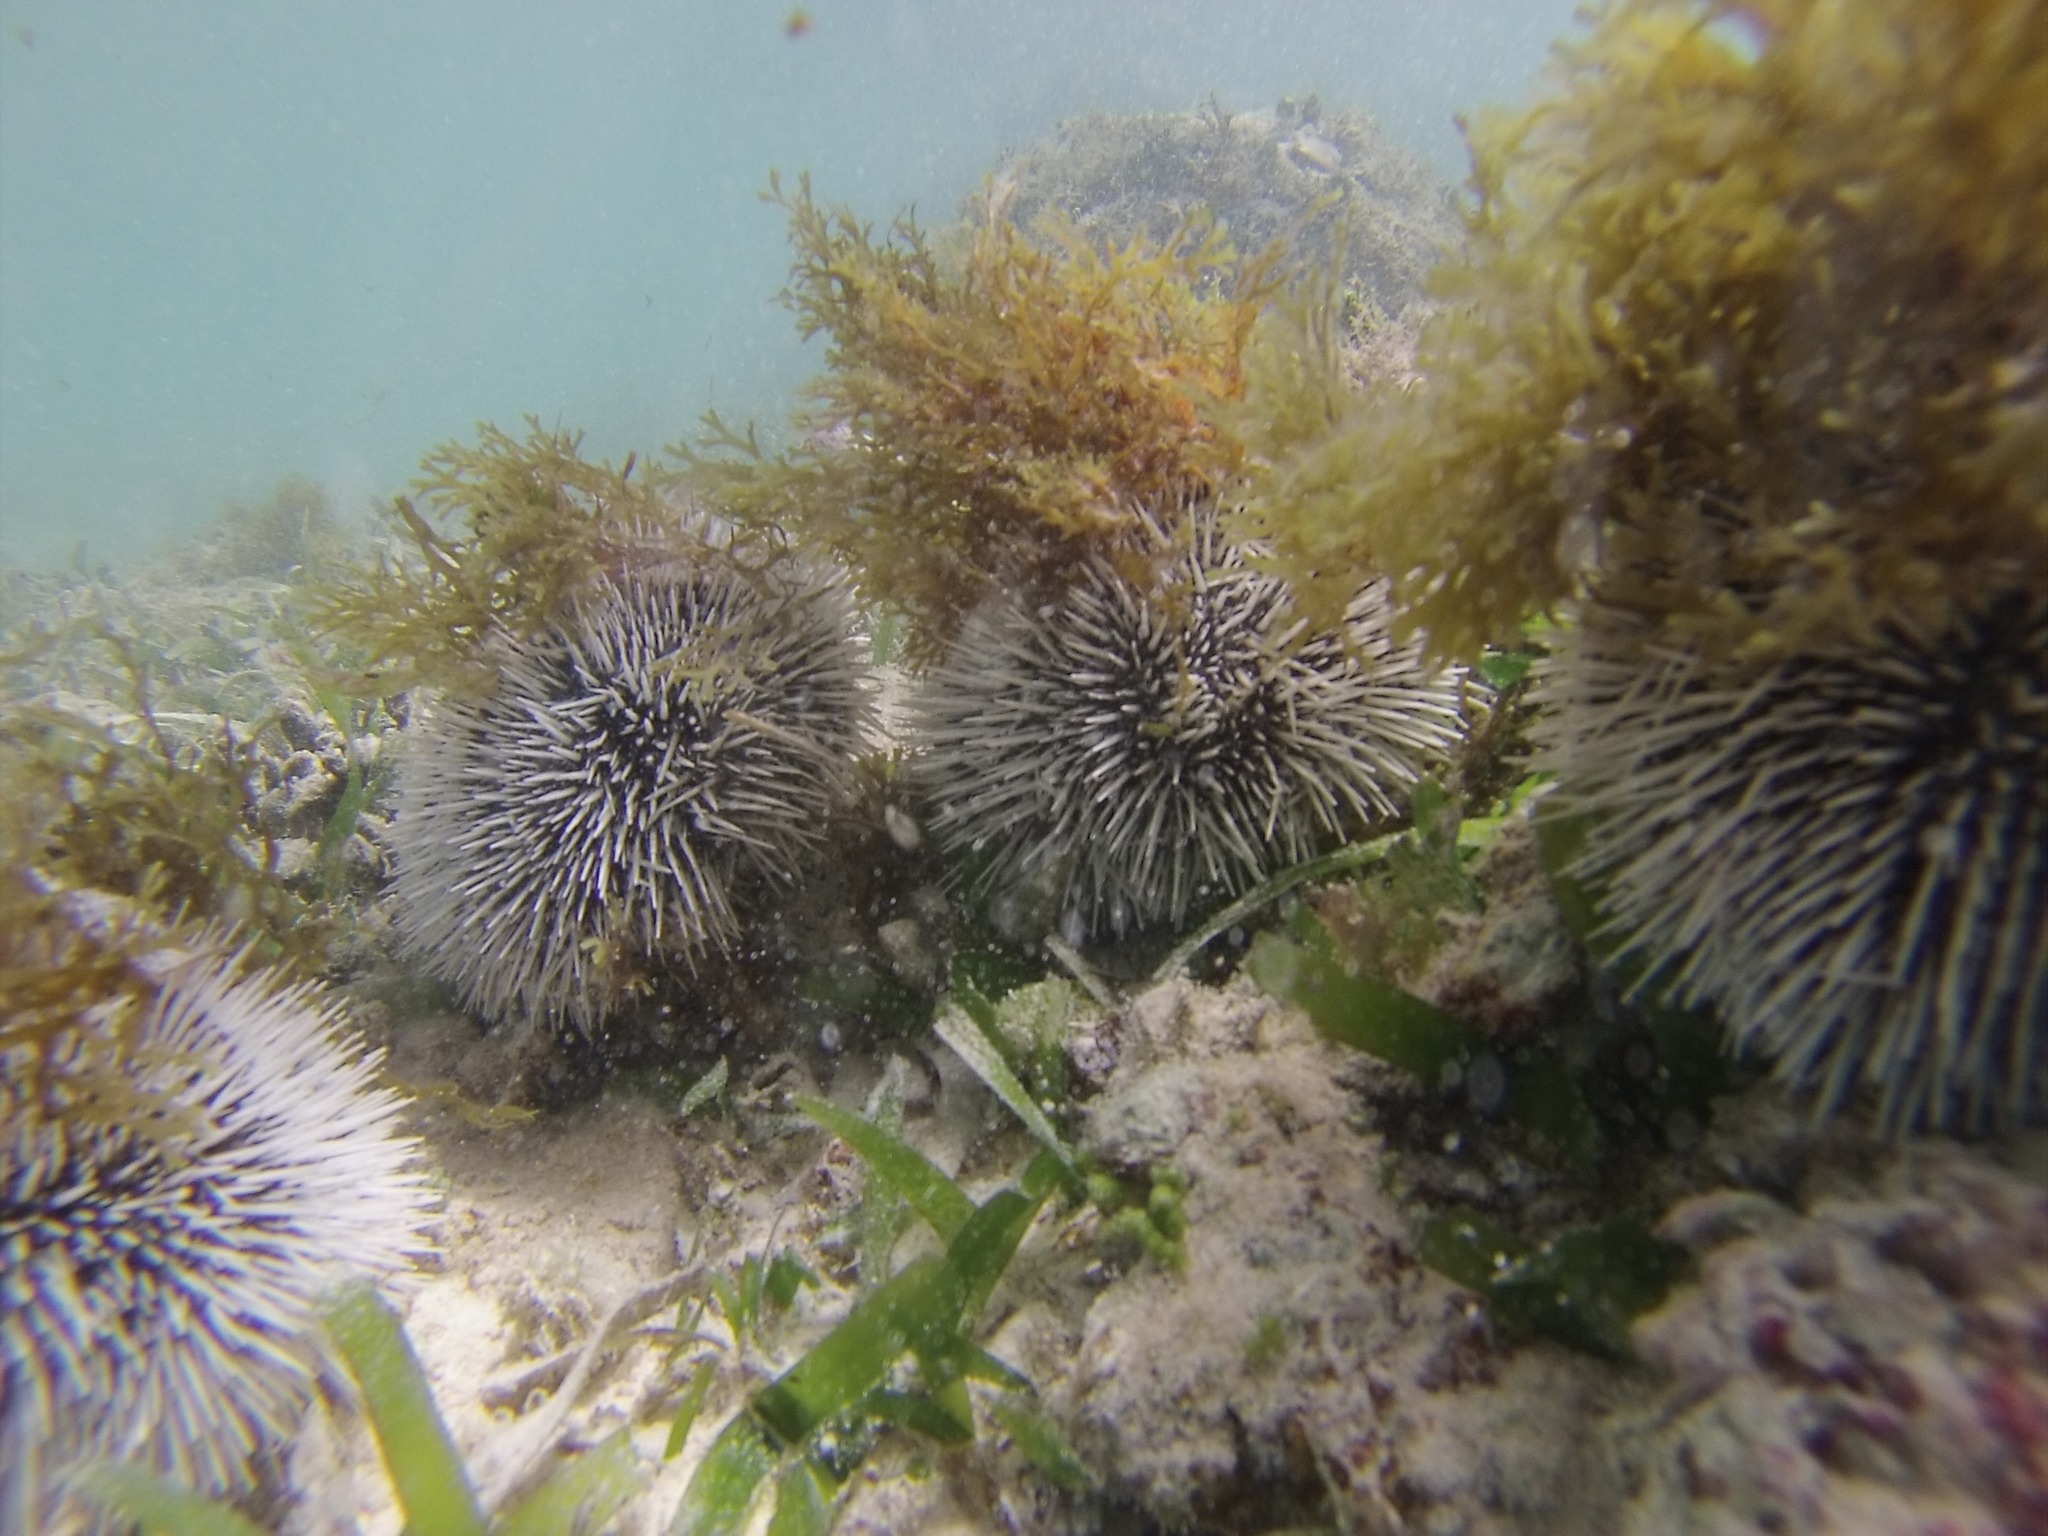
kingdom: Animalia
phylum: Echinodermata
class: Echinoidea
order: Camarodonta
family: Toxopneustidae
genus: Tripneustes
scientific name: Tripneustes ventricosus
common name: West indian sea egg
